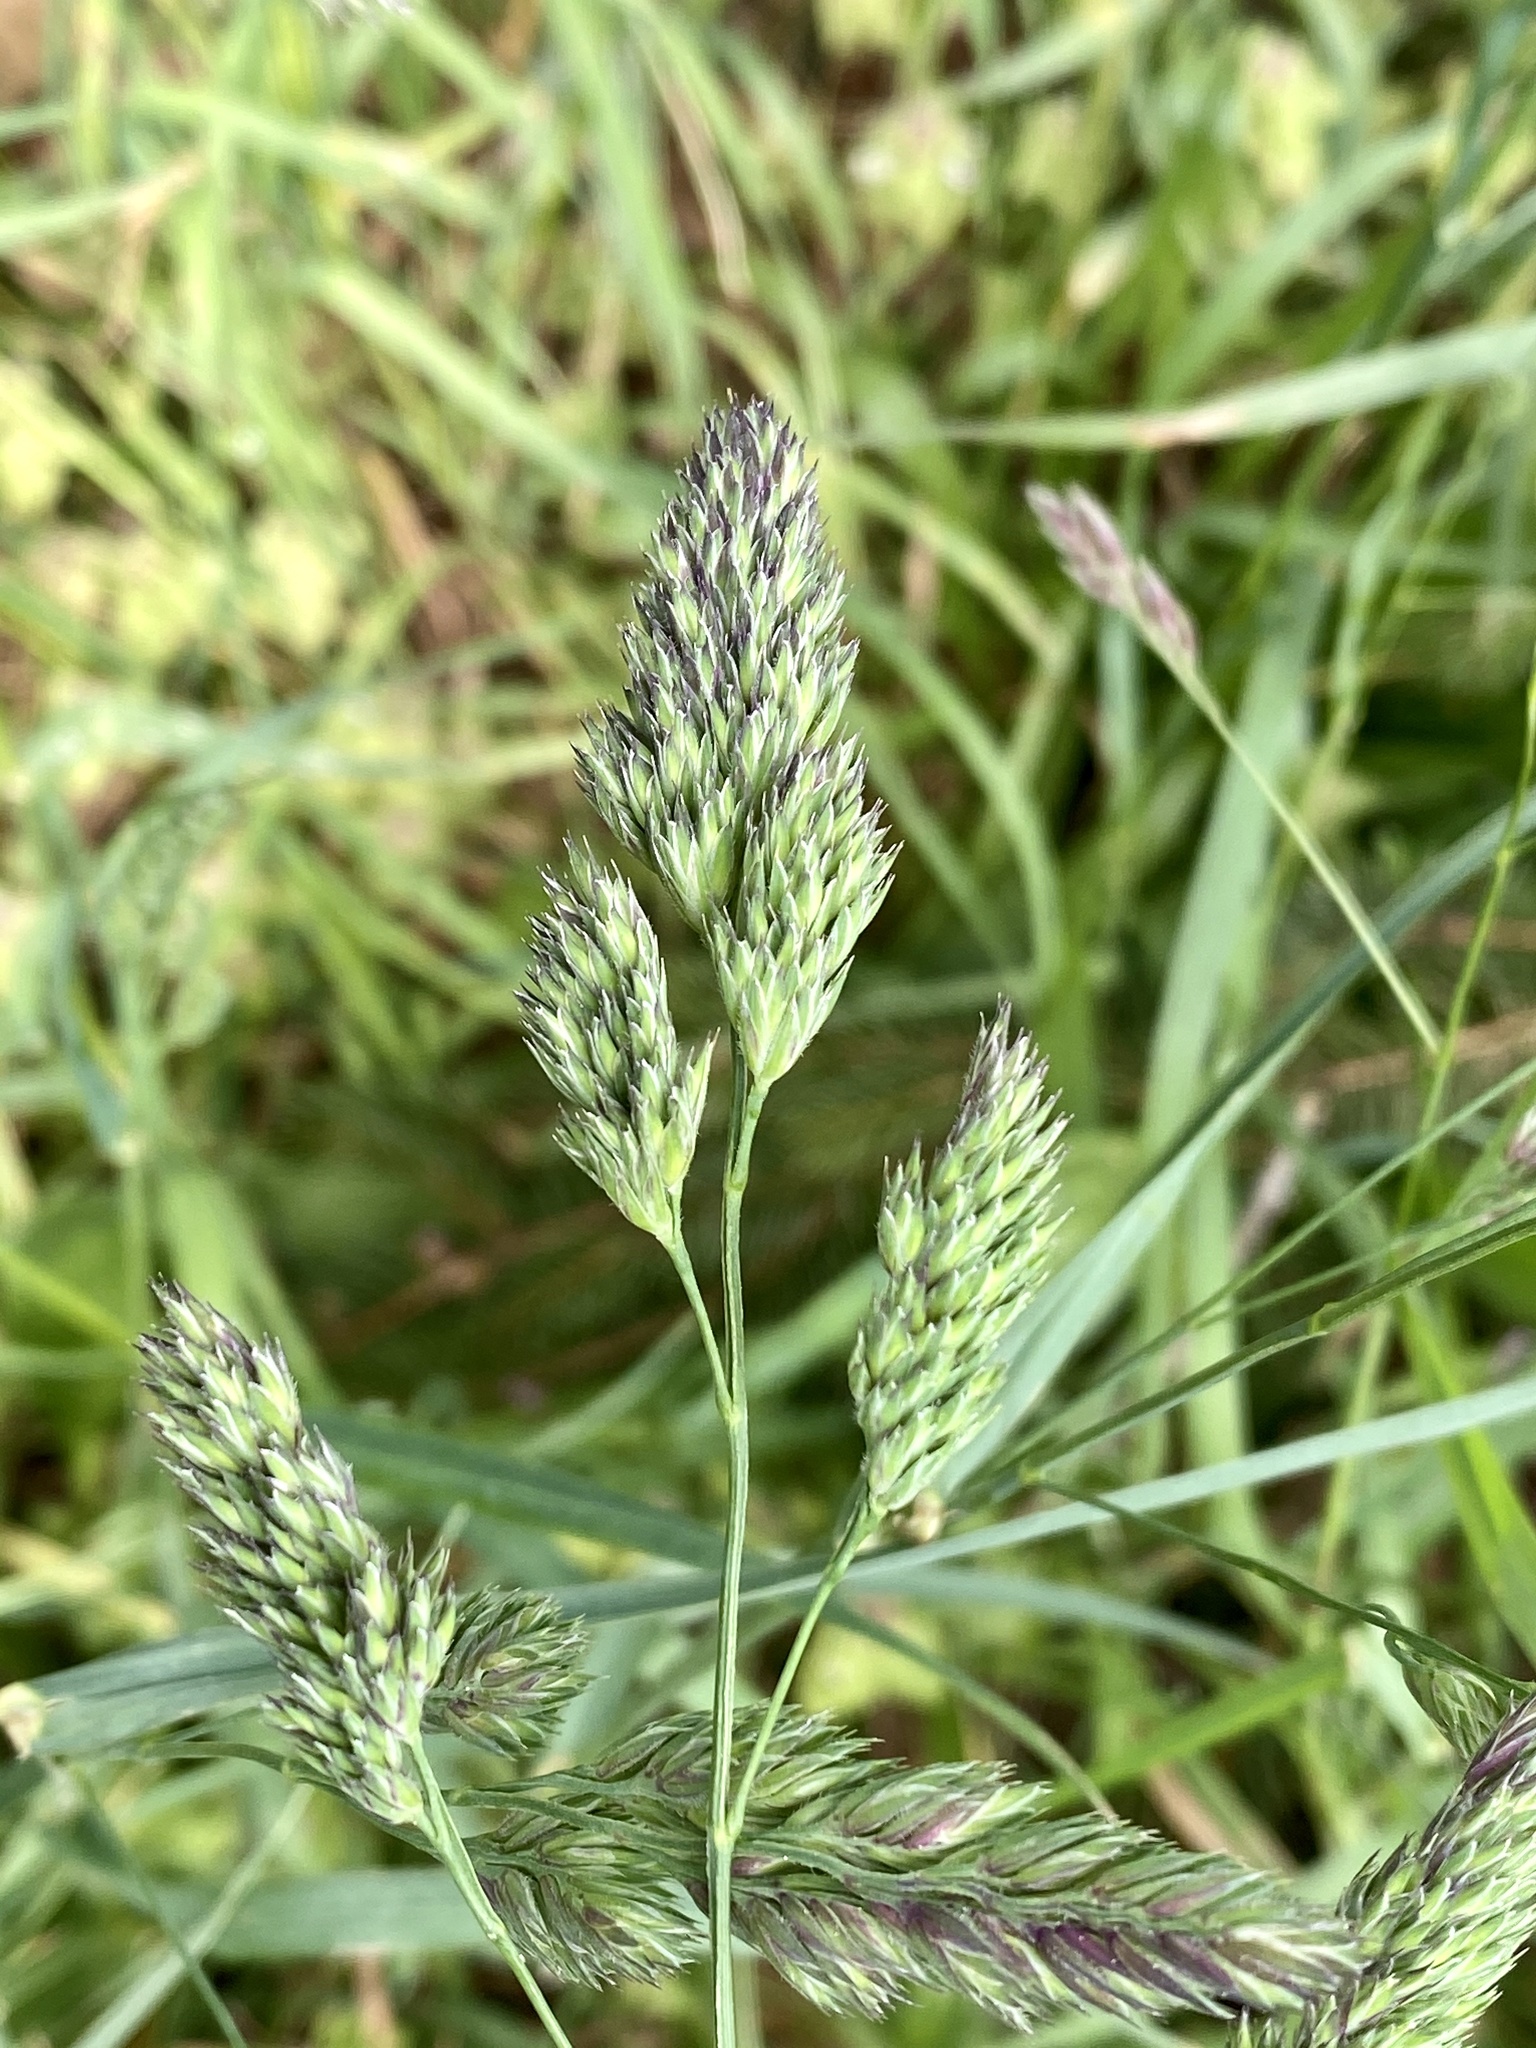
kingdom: Plantae
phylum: Tracheophyta
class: Liliopsida
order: Poales
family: Poaceae
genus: Dactylis
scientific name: Dactylis glomerata
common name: Orchardgrass
